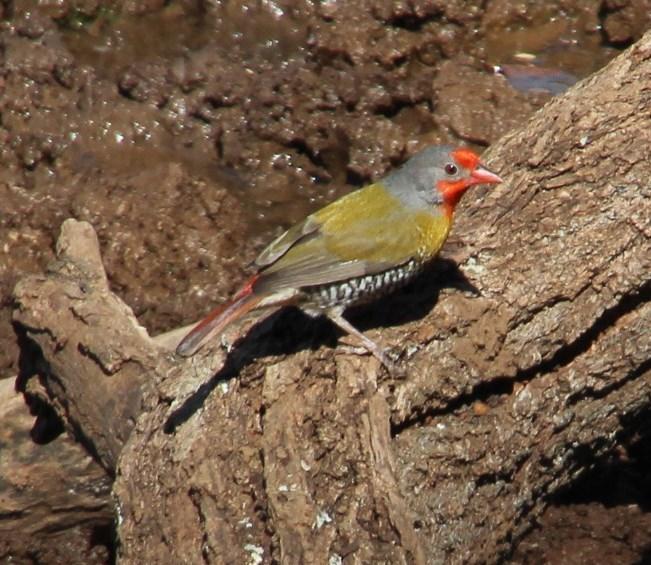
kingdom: Animalia
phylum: Chordata
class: Aves
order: Passeriformes
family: Estrildidae
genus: Pytilia
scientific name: Pytilia melba
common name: Green-winged pytilia
